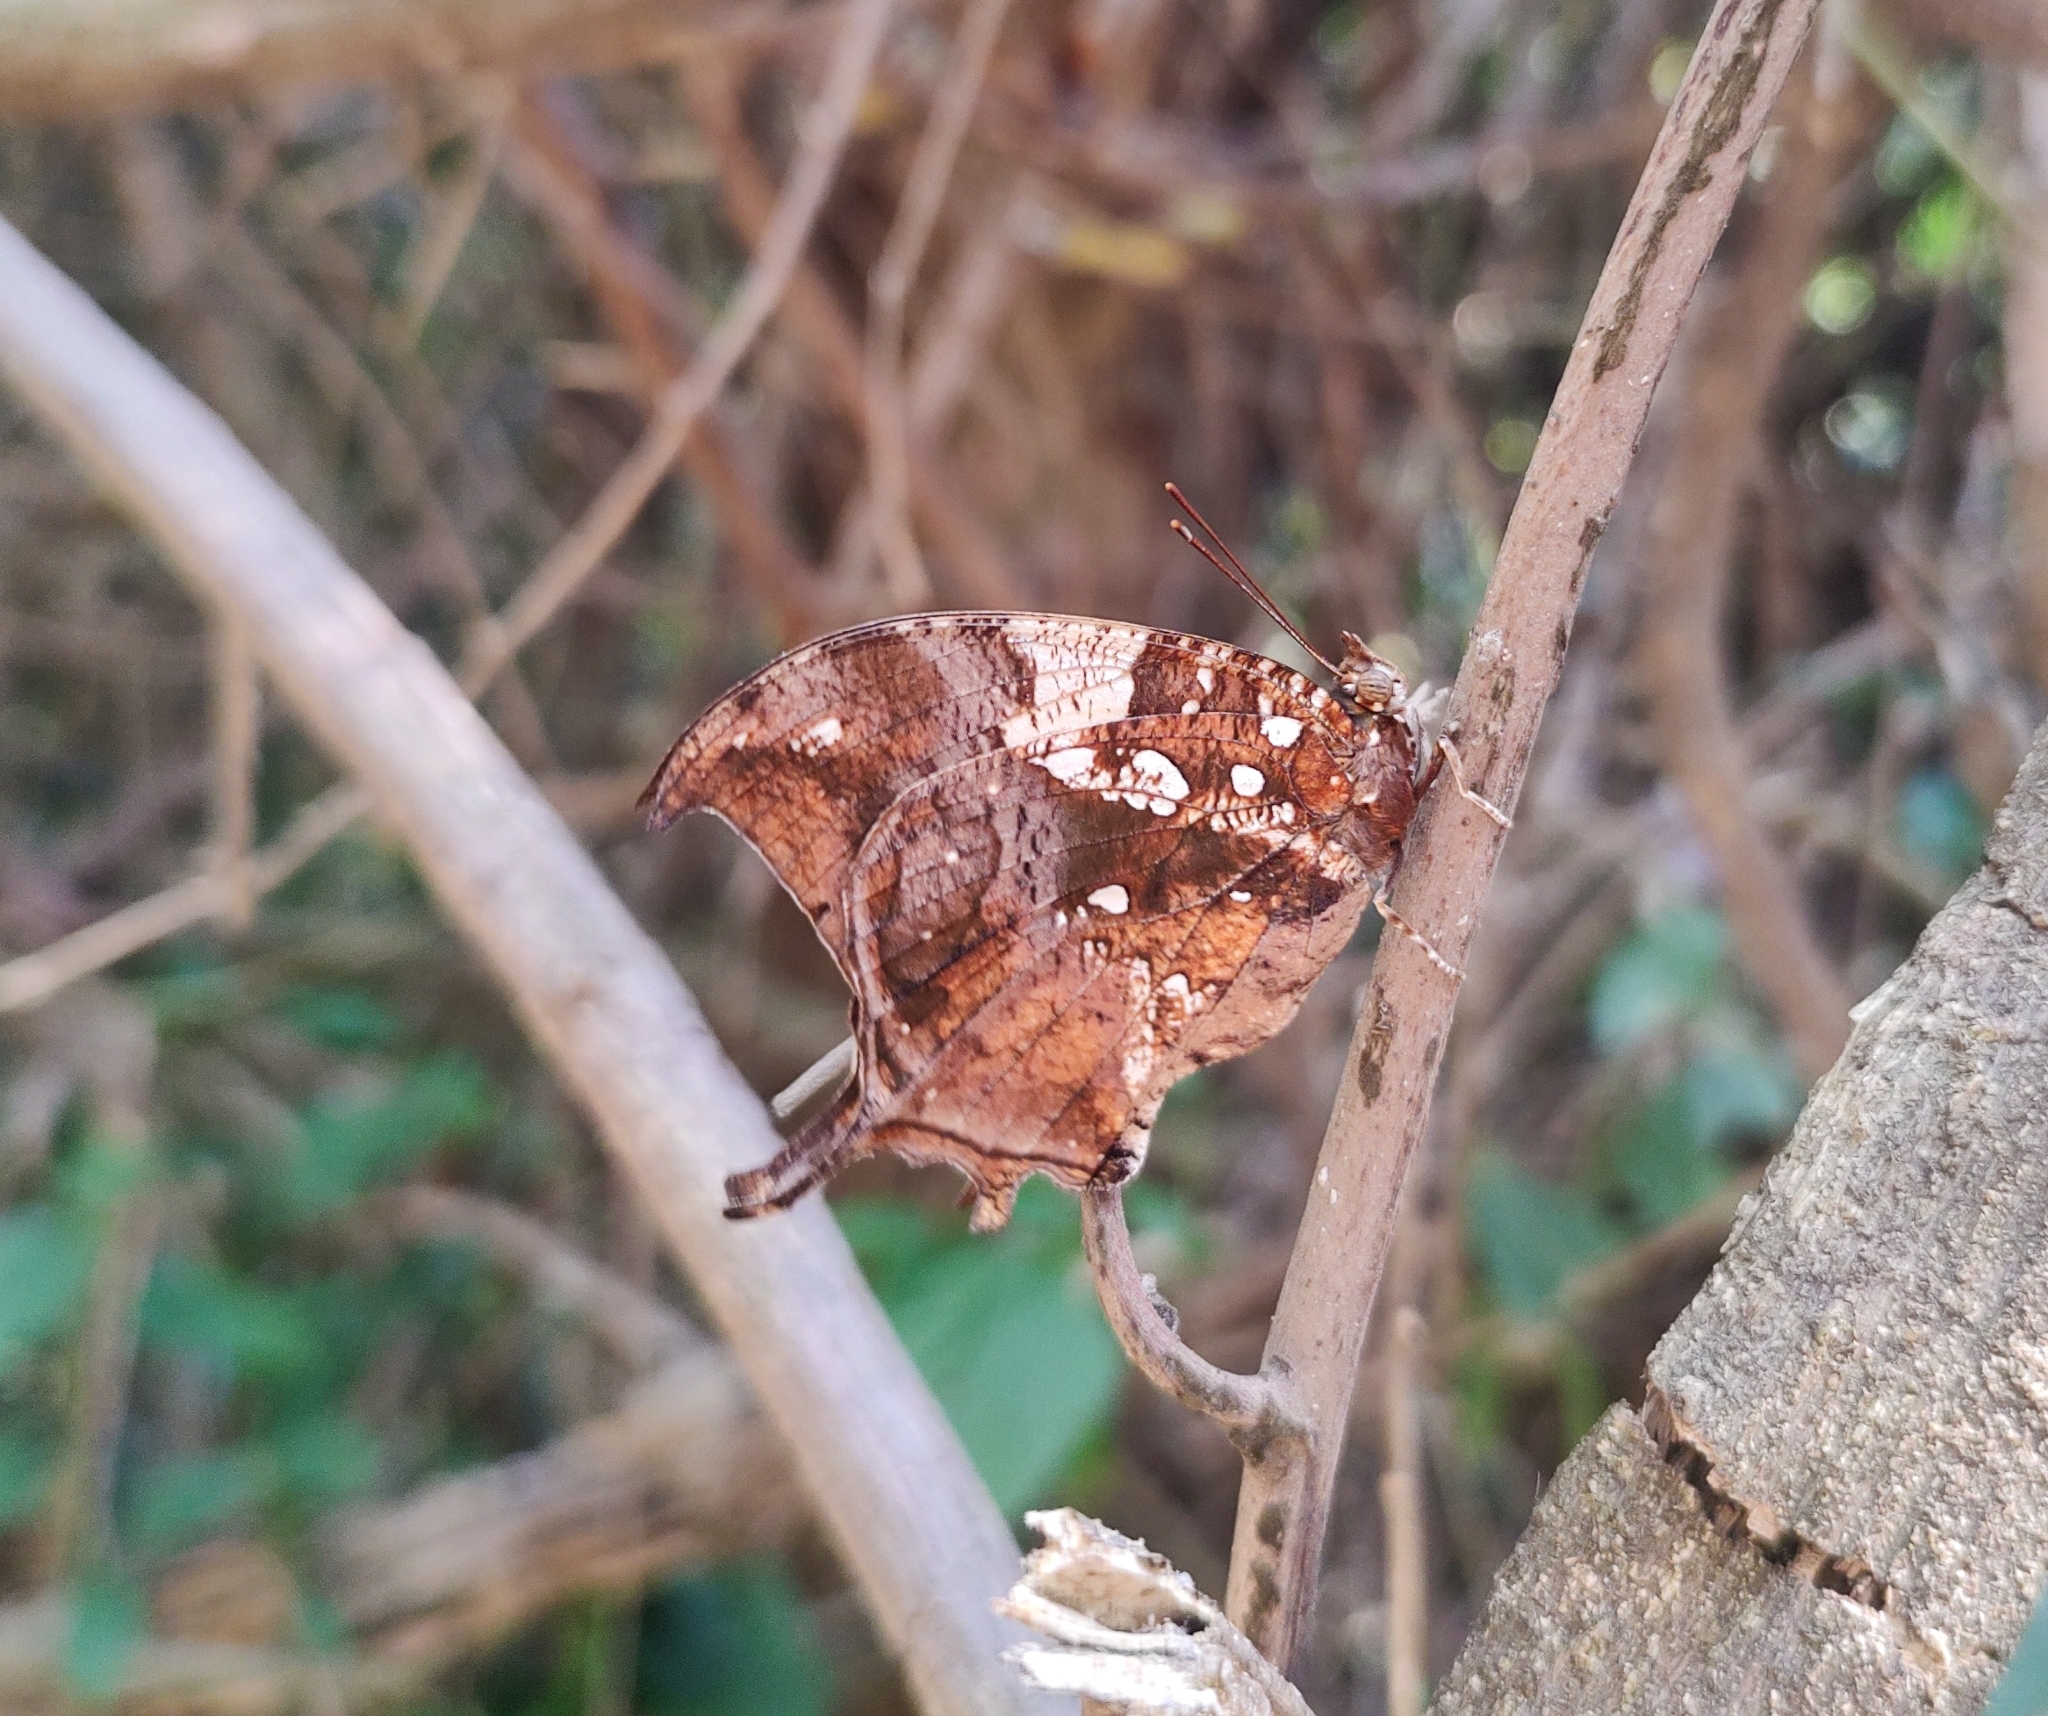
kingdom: Animalia
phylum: Arthropoda
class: Insecta
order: Lepidoptera
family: Nymphalidae
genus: Hypna
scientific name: Hypna clytemnestra
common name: Silver-studded leafwing
